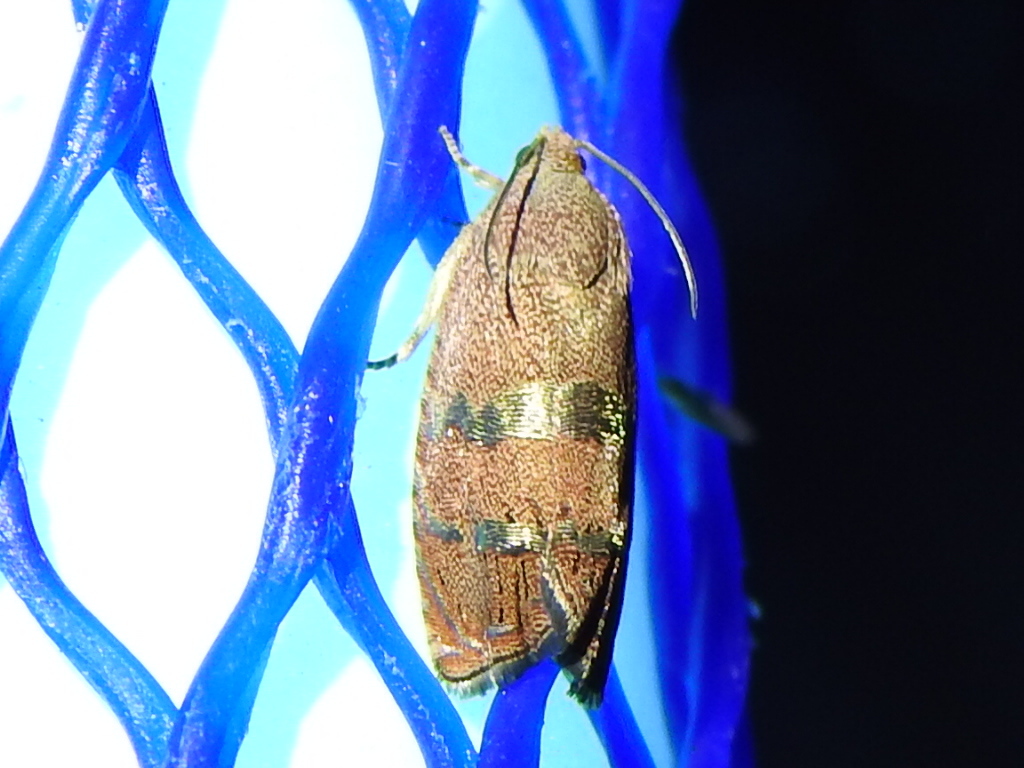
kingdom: Animalia
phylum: Arthropoda
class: Insecta
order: Lepidoptera
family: Tortricidae
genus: Cydia
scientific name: Cydia latiferreana
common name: Filbertworm moth
